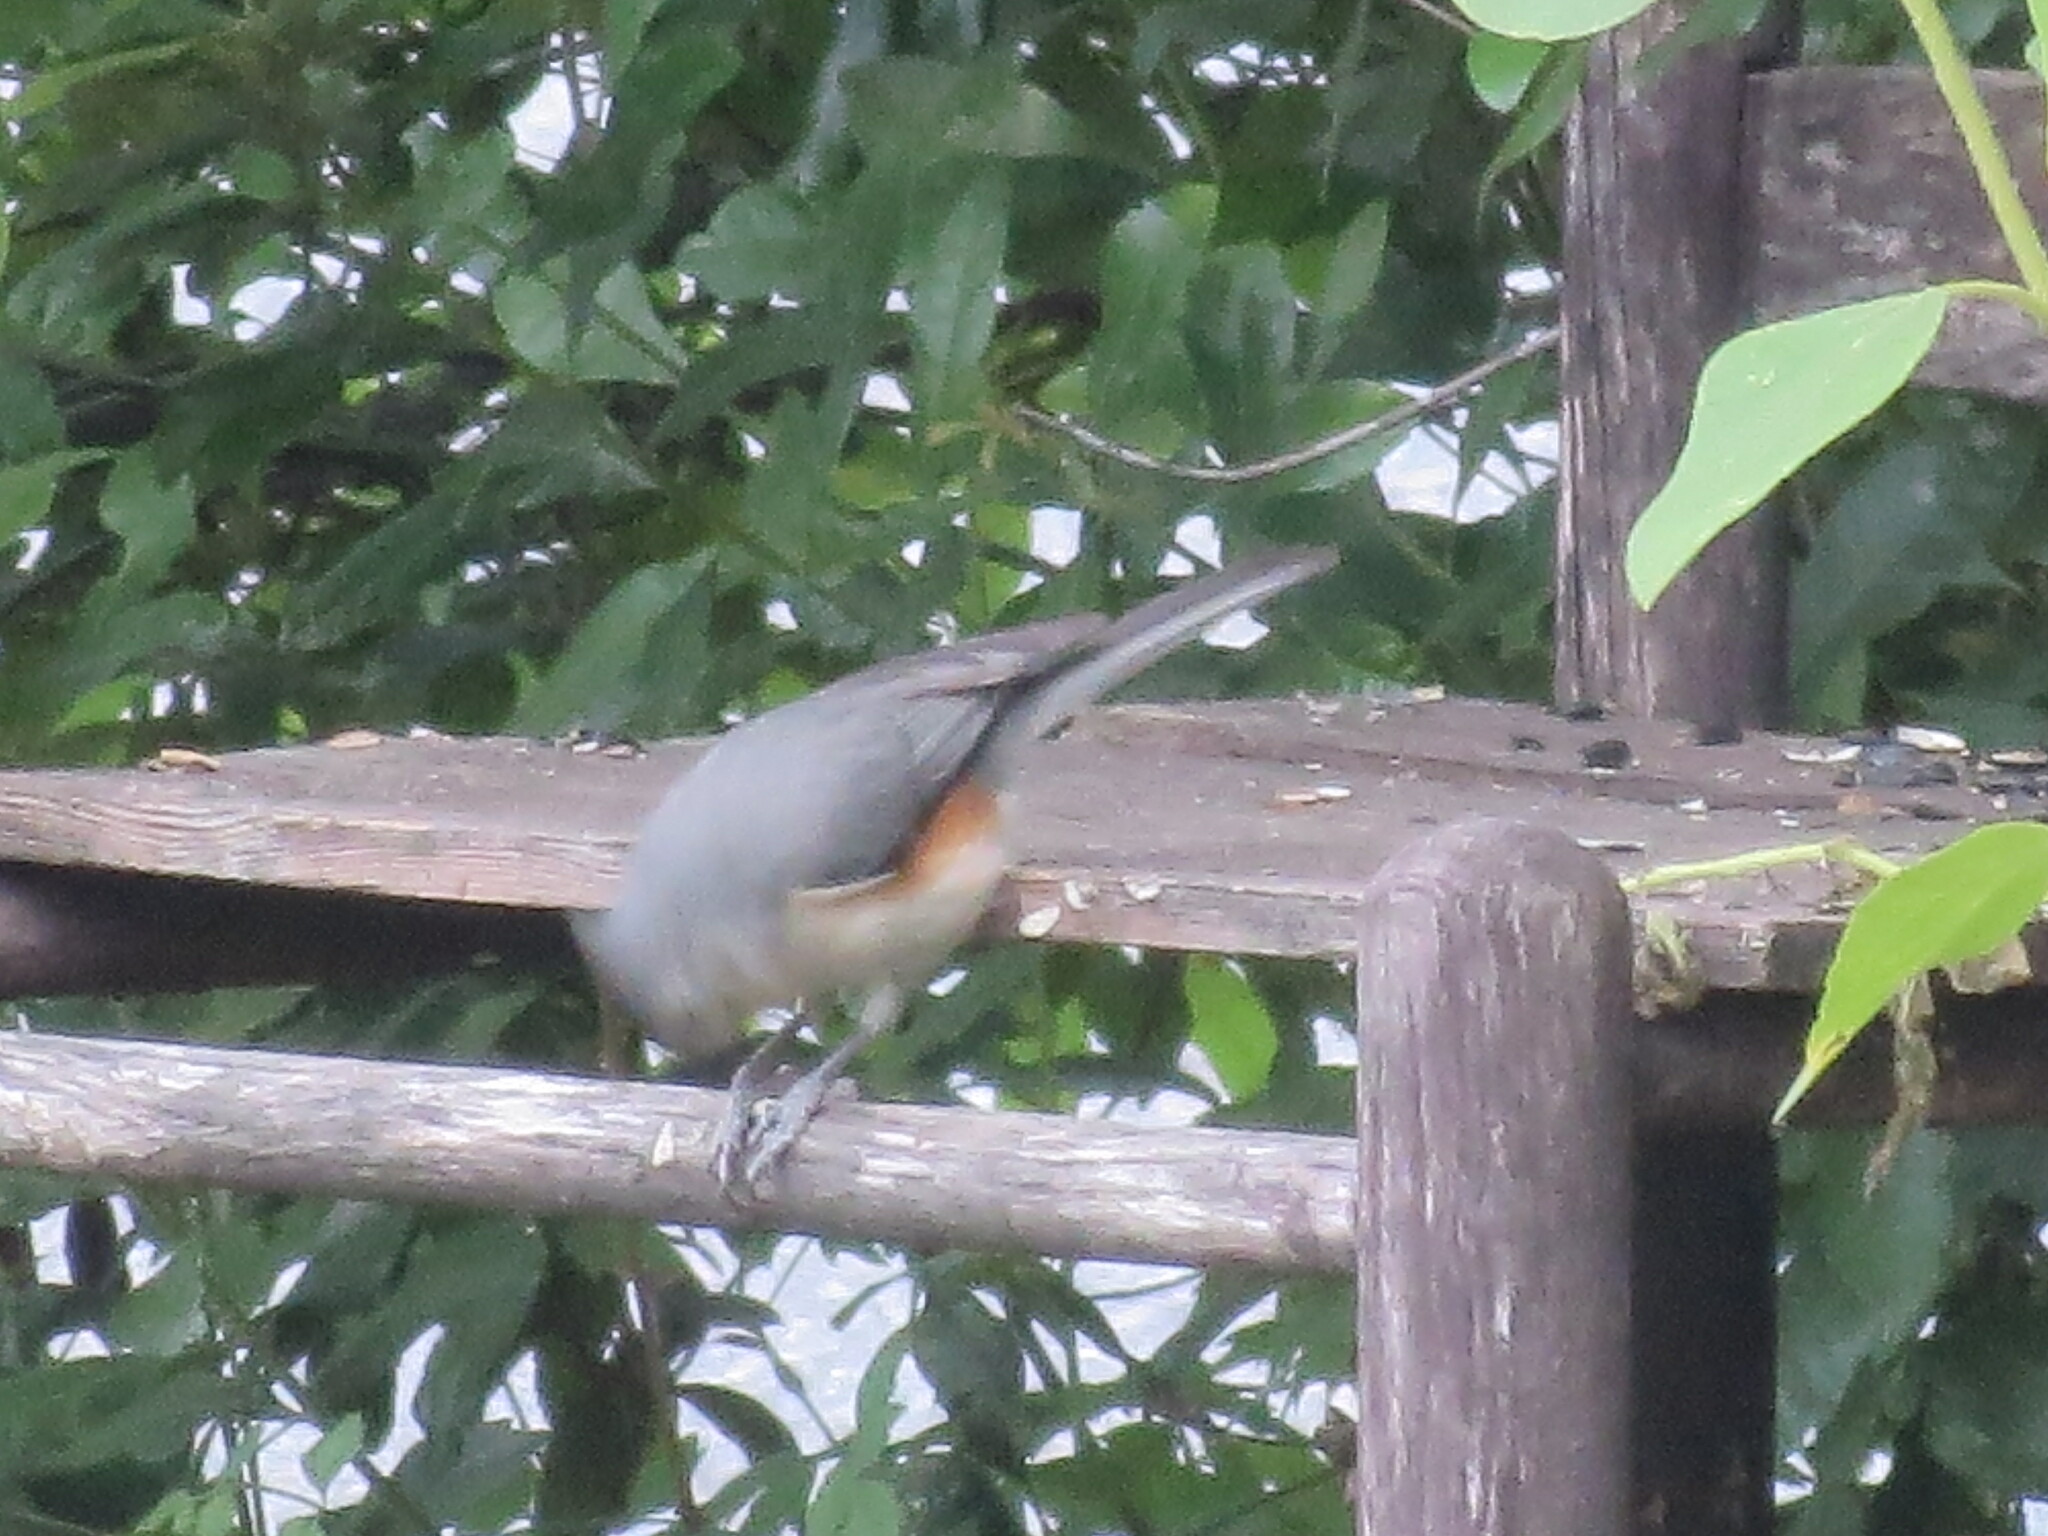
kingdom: Animalia
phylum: Chordata
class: Aves
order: Passeriformes
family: Paridae
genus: Baeolophus
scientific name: Baeolophus bicolor
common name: Tufted titmouse
